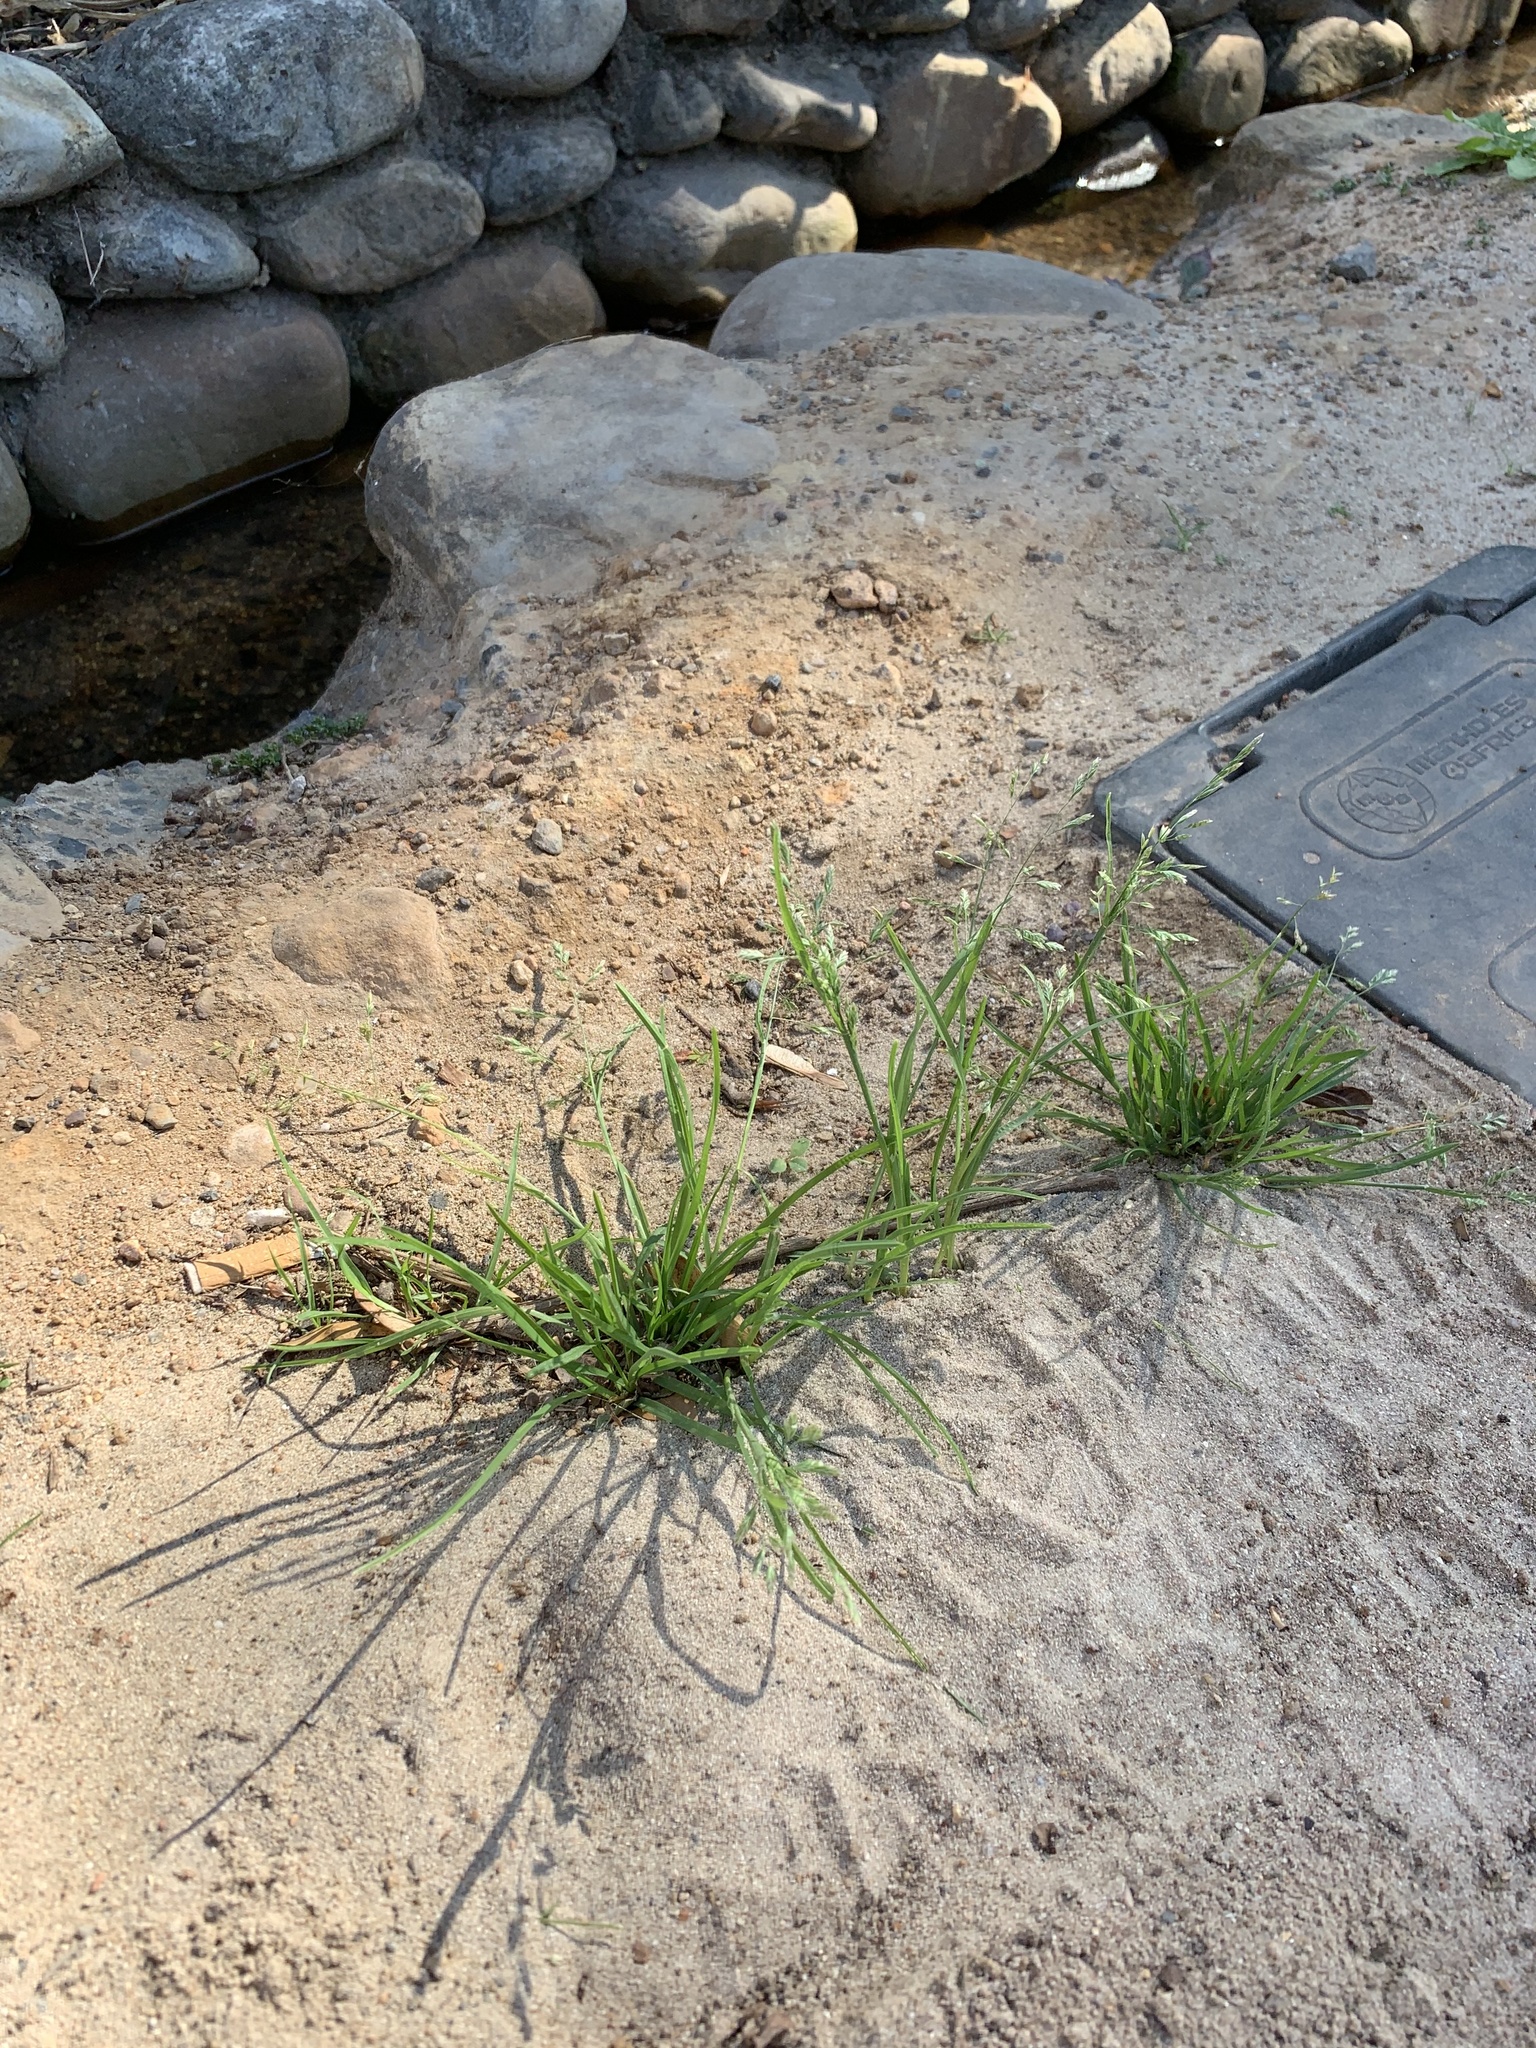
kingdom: Plantae
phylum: Tracheophyta
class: Liliopsida
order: Poales
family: Poaceae
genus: Poa
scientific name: Poa annua
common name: Annual bluegrass
